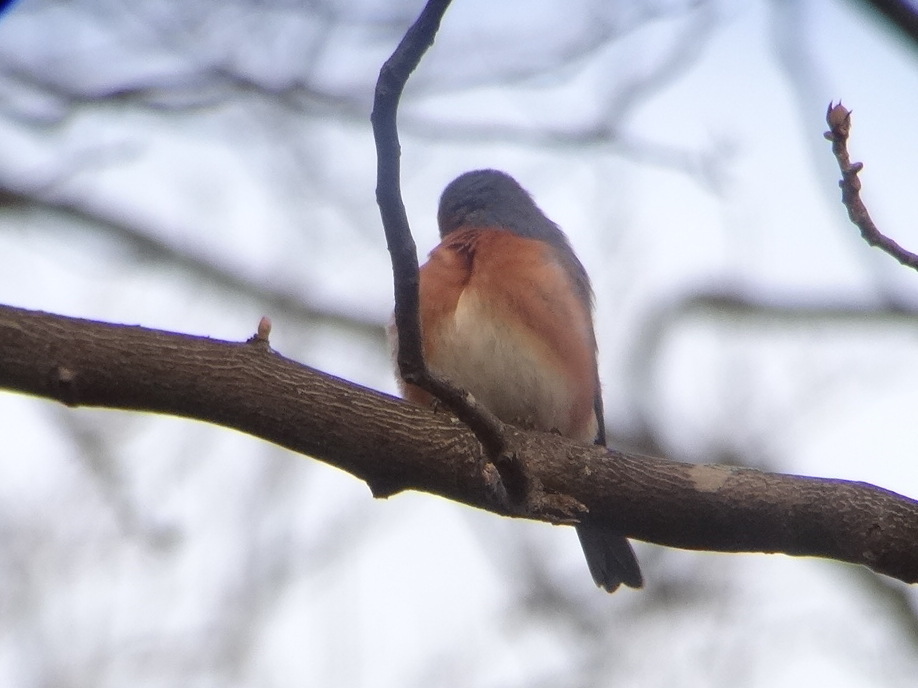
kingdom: Animalia
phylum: Chordata
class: Aves
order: Passeriformes
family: Turdidae
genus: Sialia
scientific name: Sialia sialis
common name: Eastern bluebird
